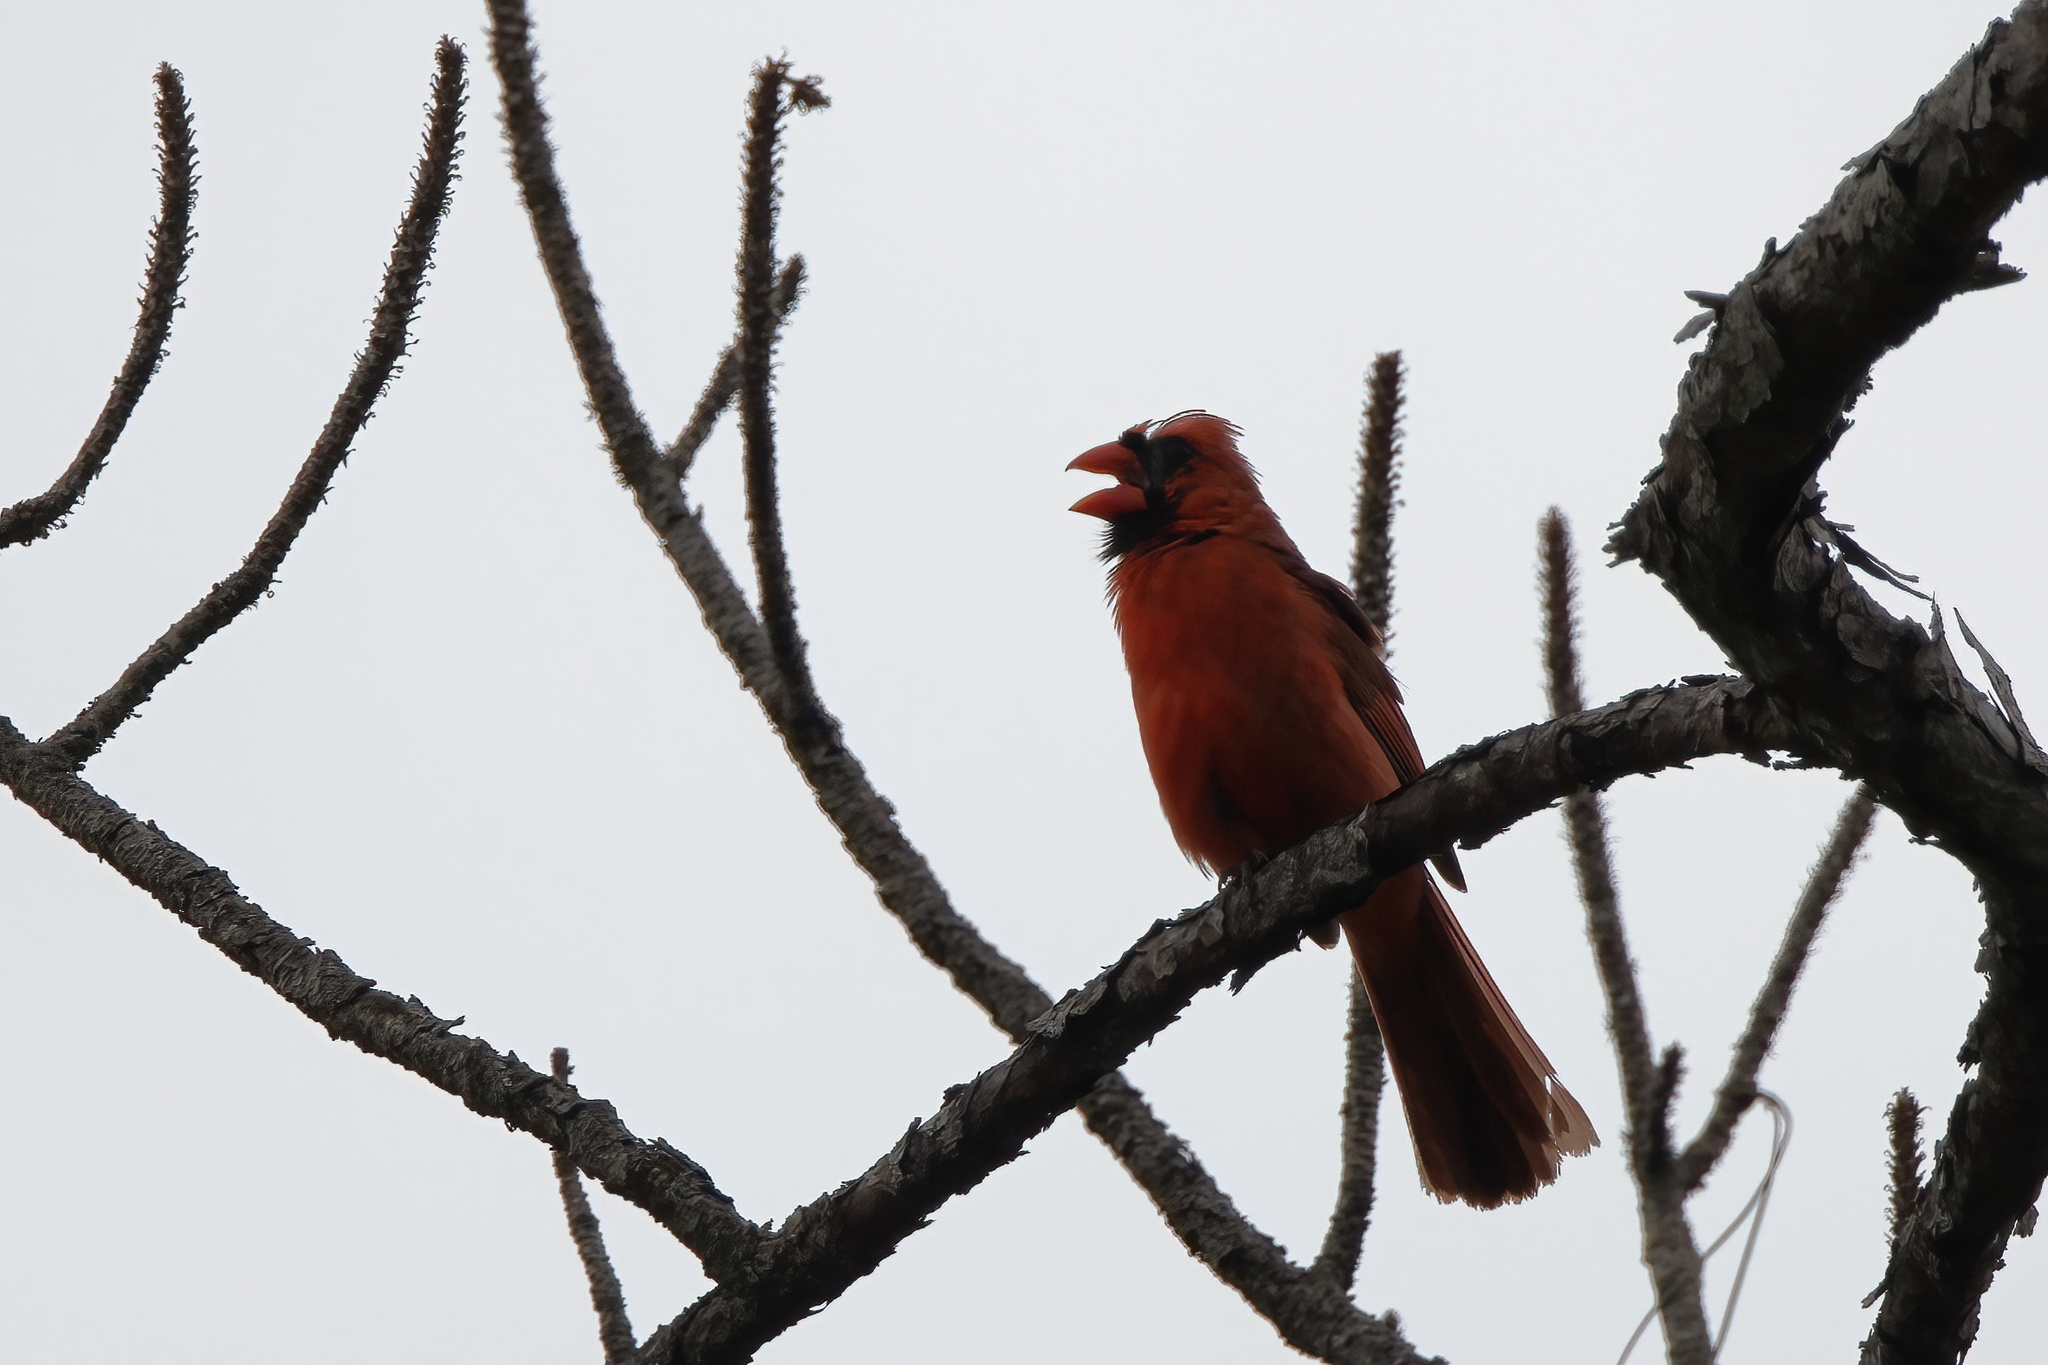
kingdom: Animalia
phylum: Chordata
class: Aves
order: Passeriformes
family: Cardinalidae
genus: Cardinalis
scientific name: Cardinalis cardinalis
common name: Northern cardinal
